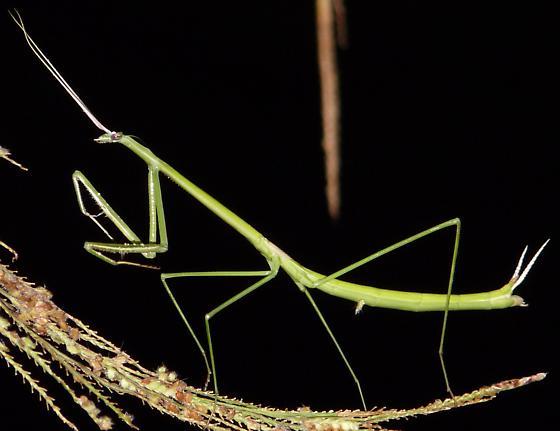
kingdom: Animalia
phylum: Arthropoda
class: Insecta
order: Mantodea
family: Coptopterygidae
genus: Brunneria
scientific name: Brunneria borealis
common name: Mantis
